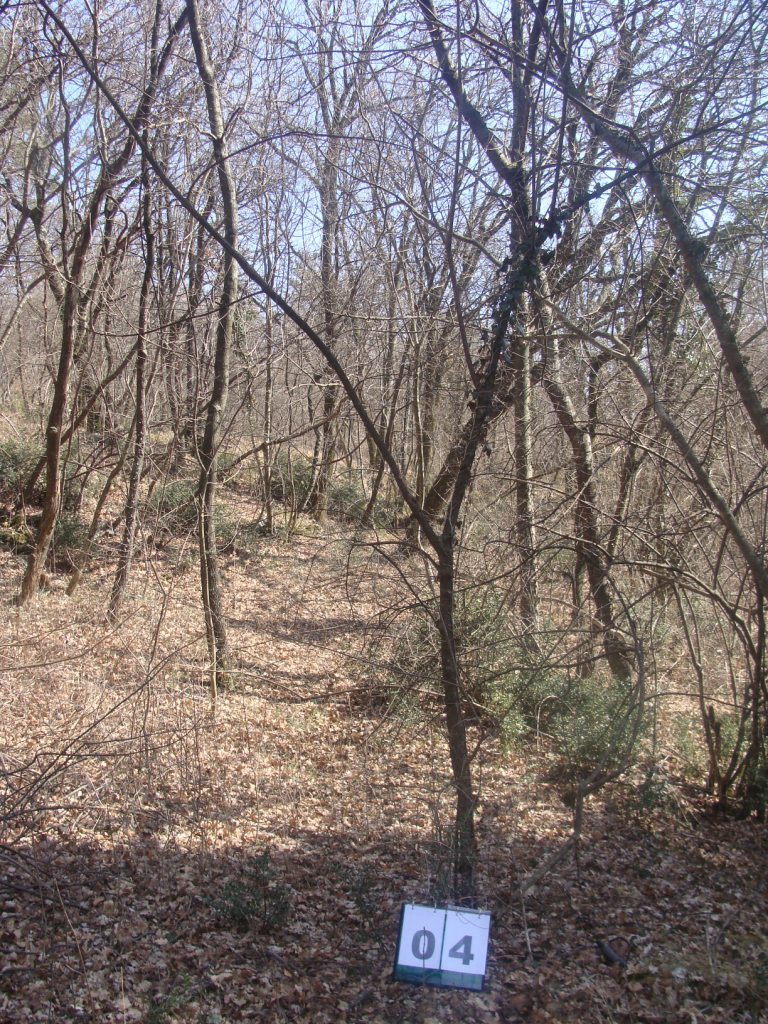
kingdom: Plantae
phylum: Tracheophyta
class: Magnoliopsida
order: Cornales
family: Cornaceae
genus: Cornus
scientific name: Cornus mas
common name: Cornelian-cherry
